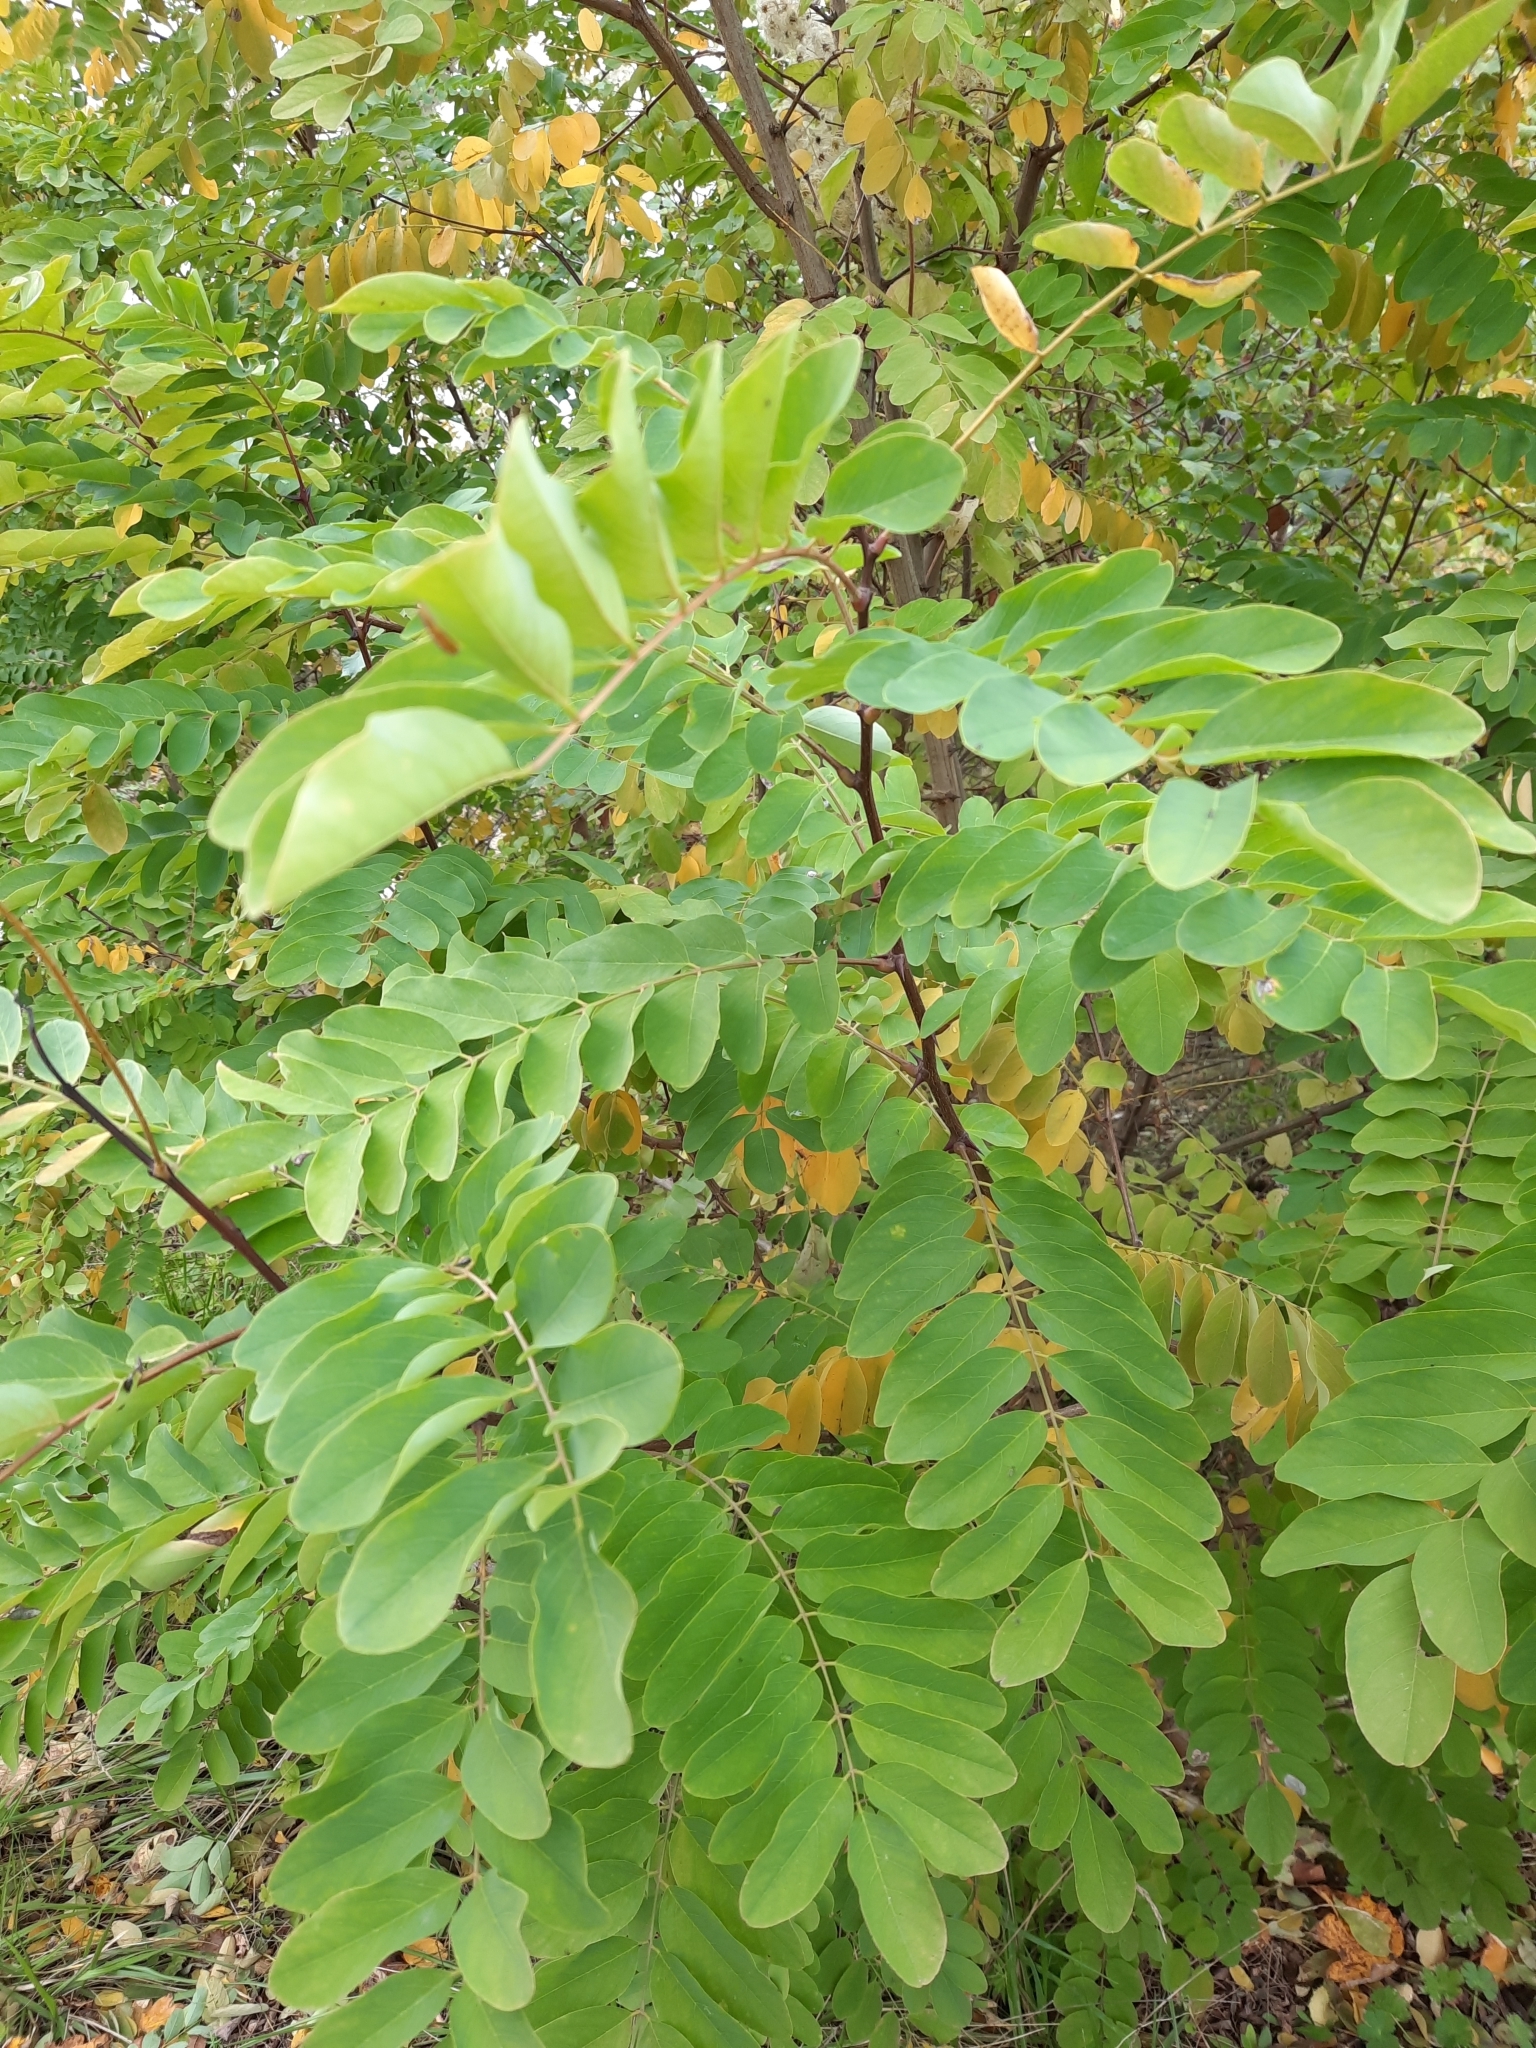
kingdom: Plantae
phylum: Tracheophyta
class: Magnoliopsida
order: Fabales
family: Fabaceae
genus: Robinia
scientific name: Robinia pseudoacacia
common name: Black locust
